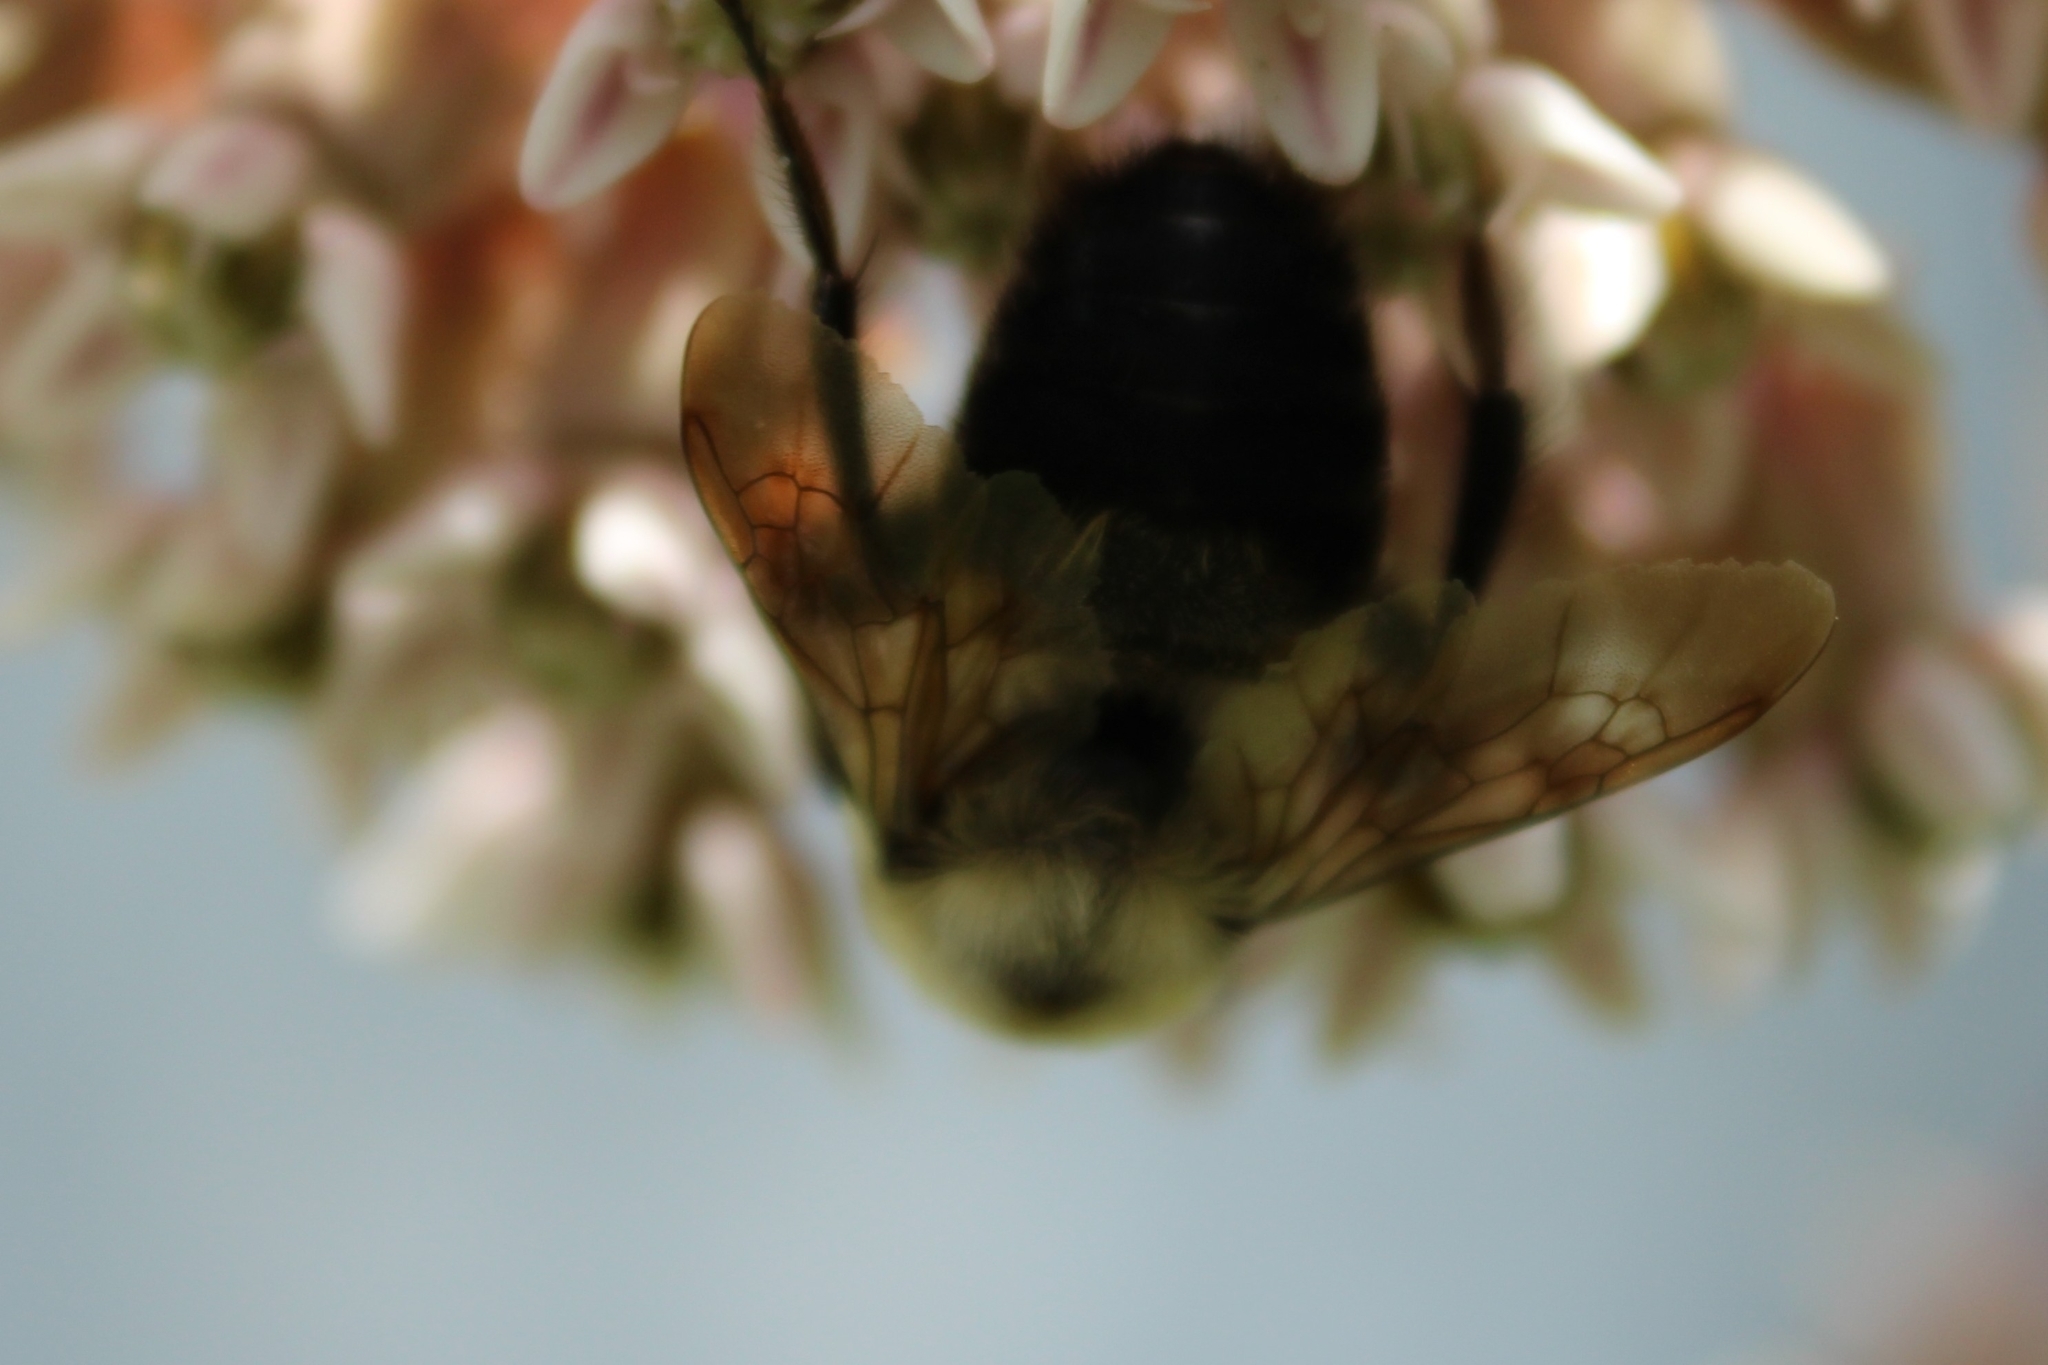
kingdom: Animalia
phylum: Arthropoda
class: Insecta
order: Hymenoptera
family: Apidae
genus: Bombus
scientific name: Bombus griseocollis
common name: Brown-belted bumble bee
